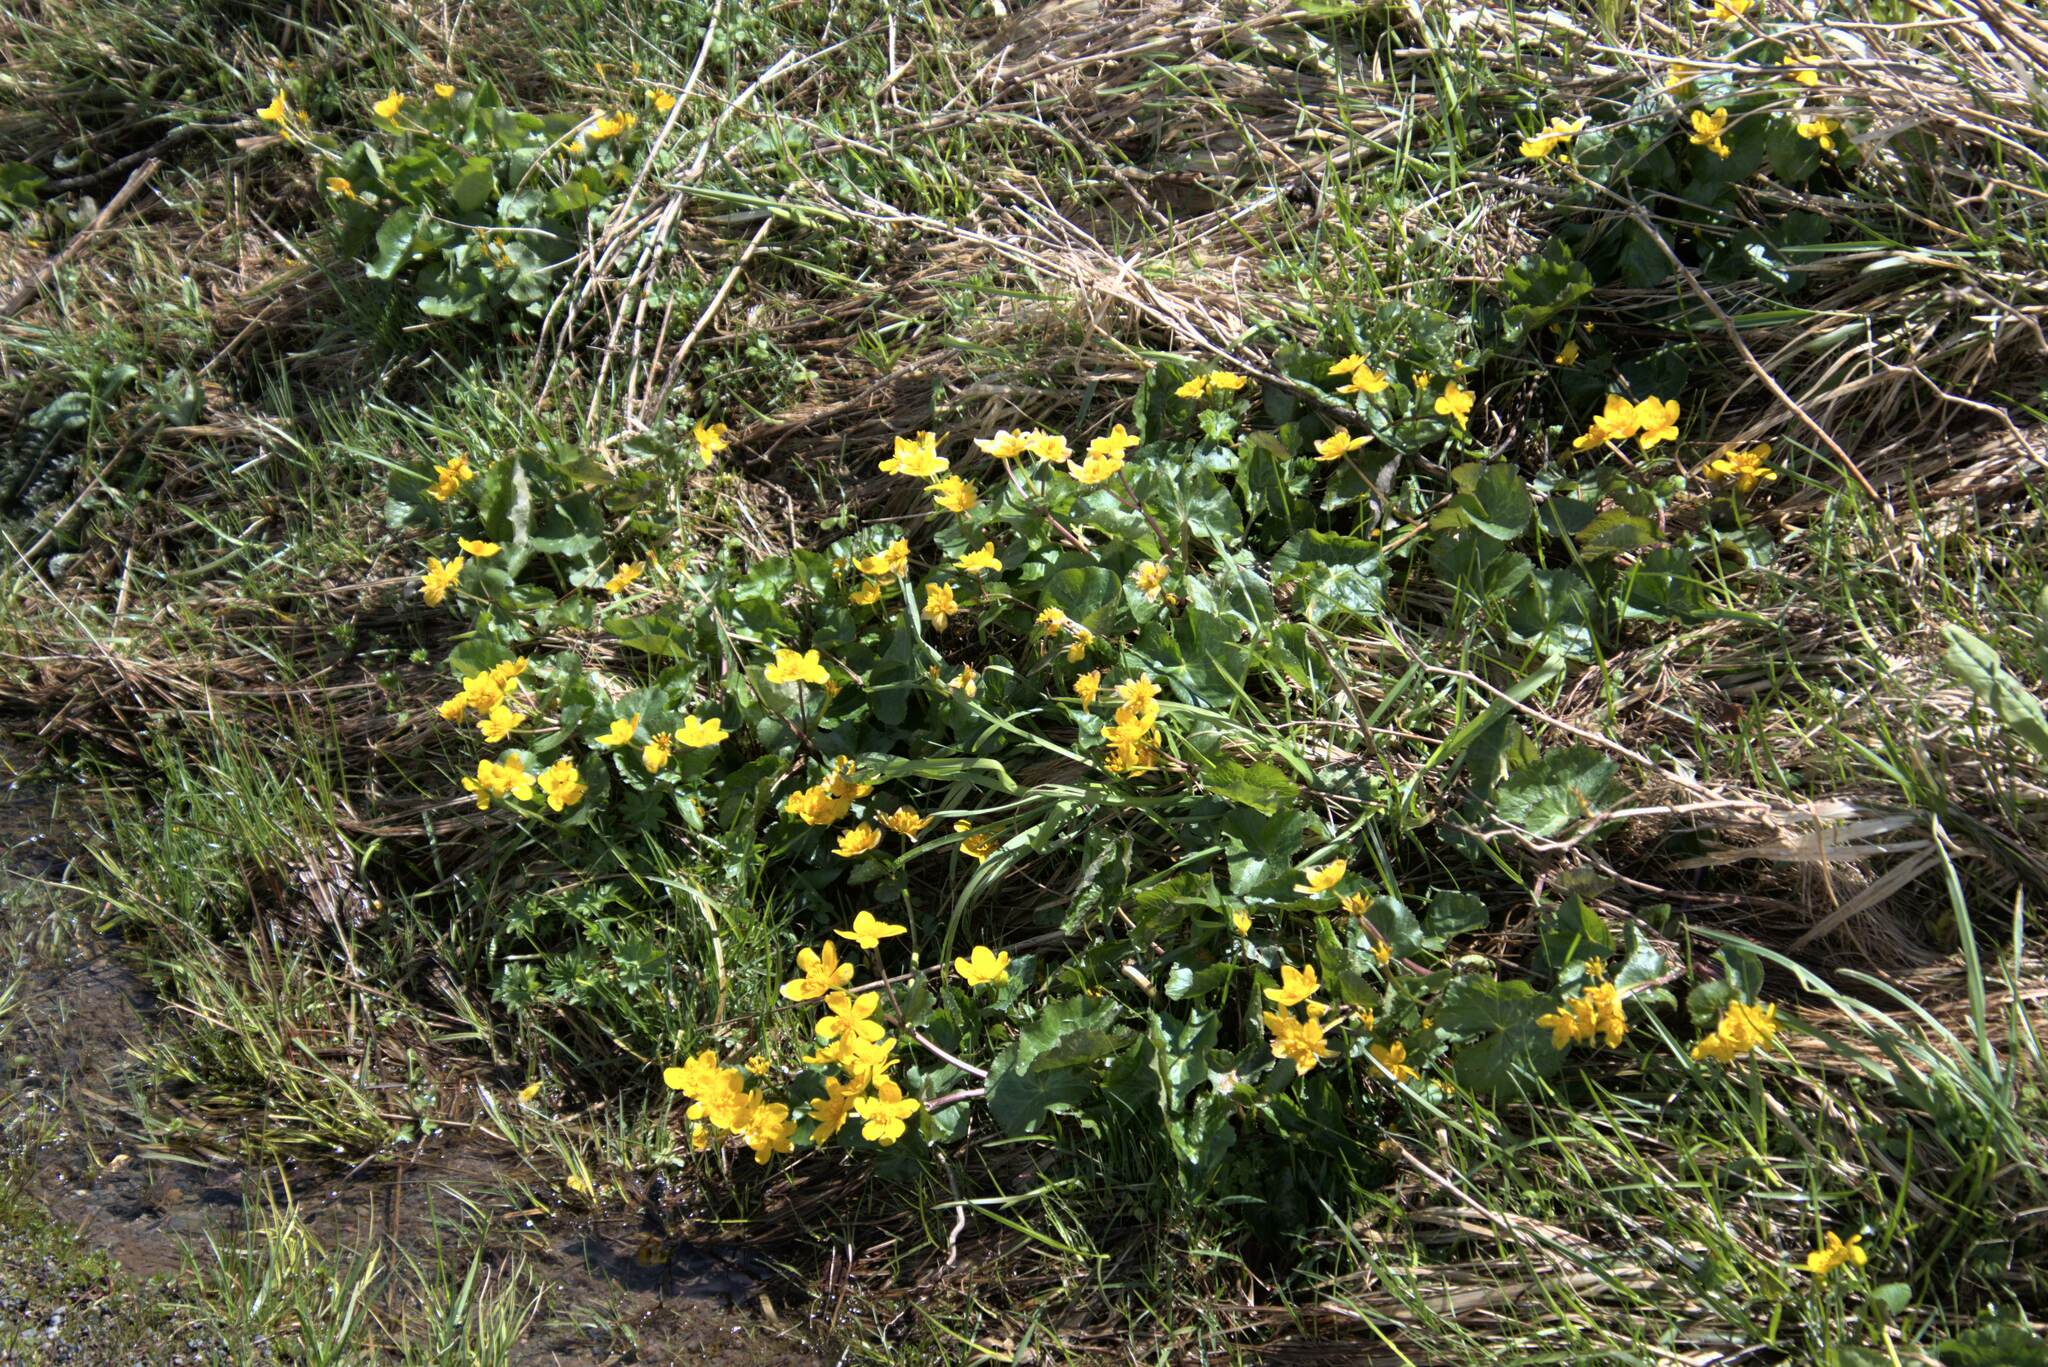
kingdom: Plantae
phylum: Tracheophyta
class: Magnoliopsida
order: Ranunculales
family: Ranunculaceae
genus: Caltha
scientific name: Caltha palustris
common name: Marsh marigold
